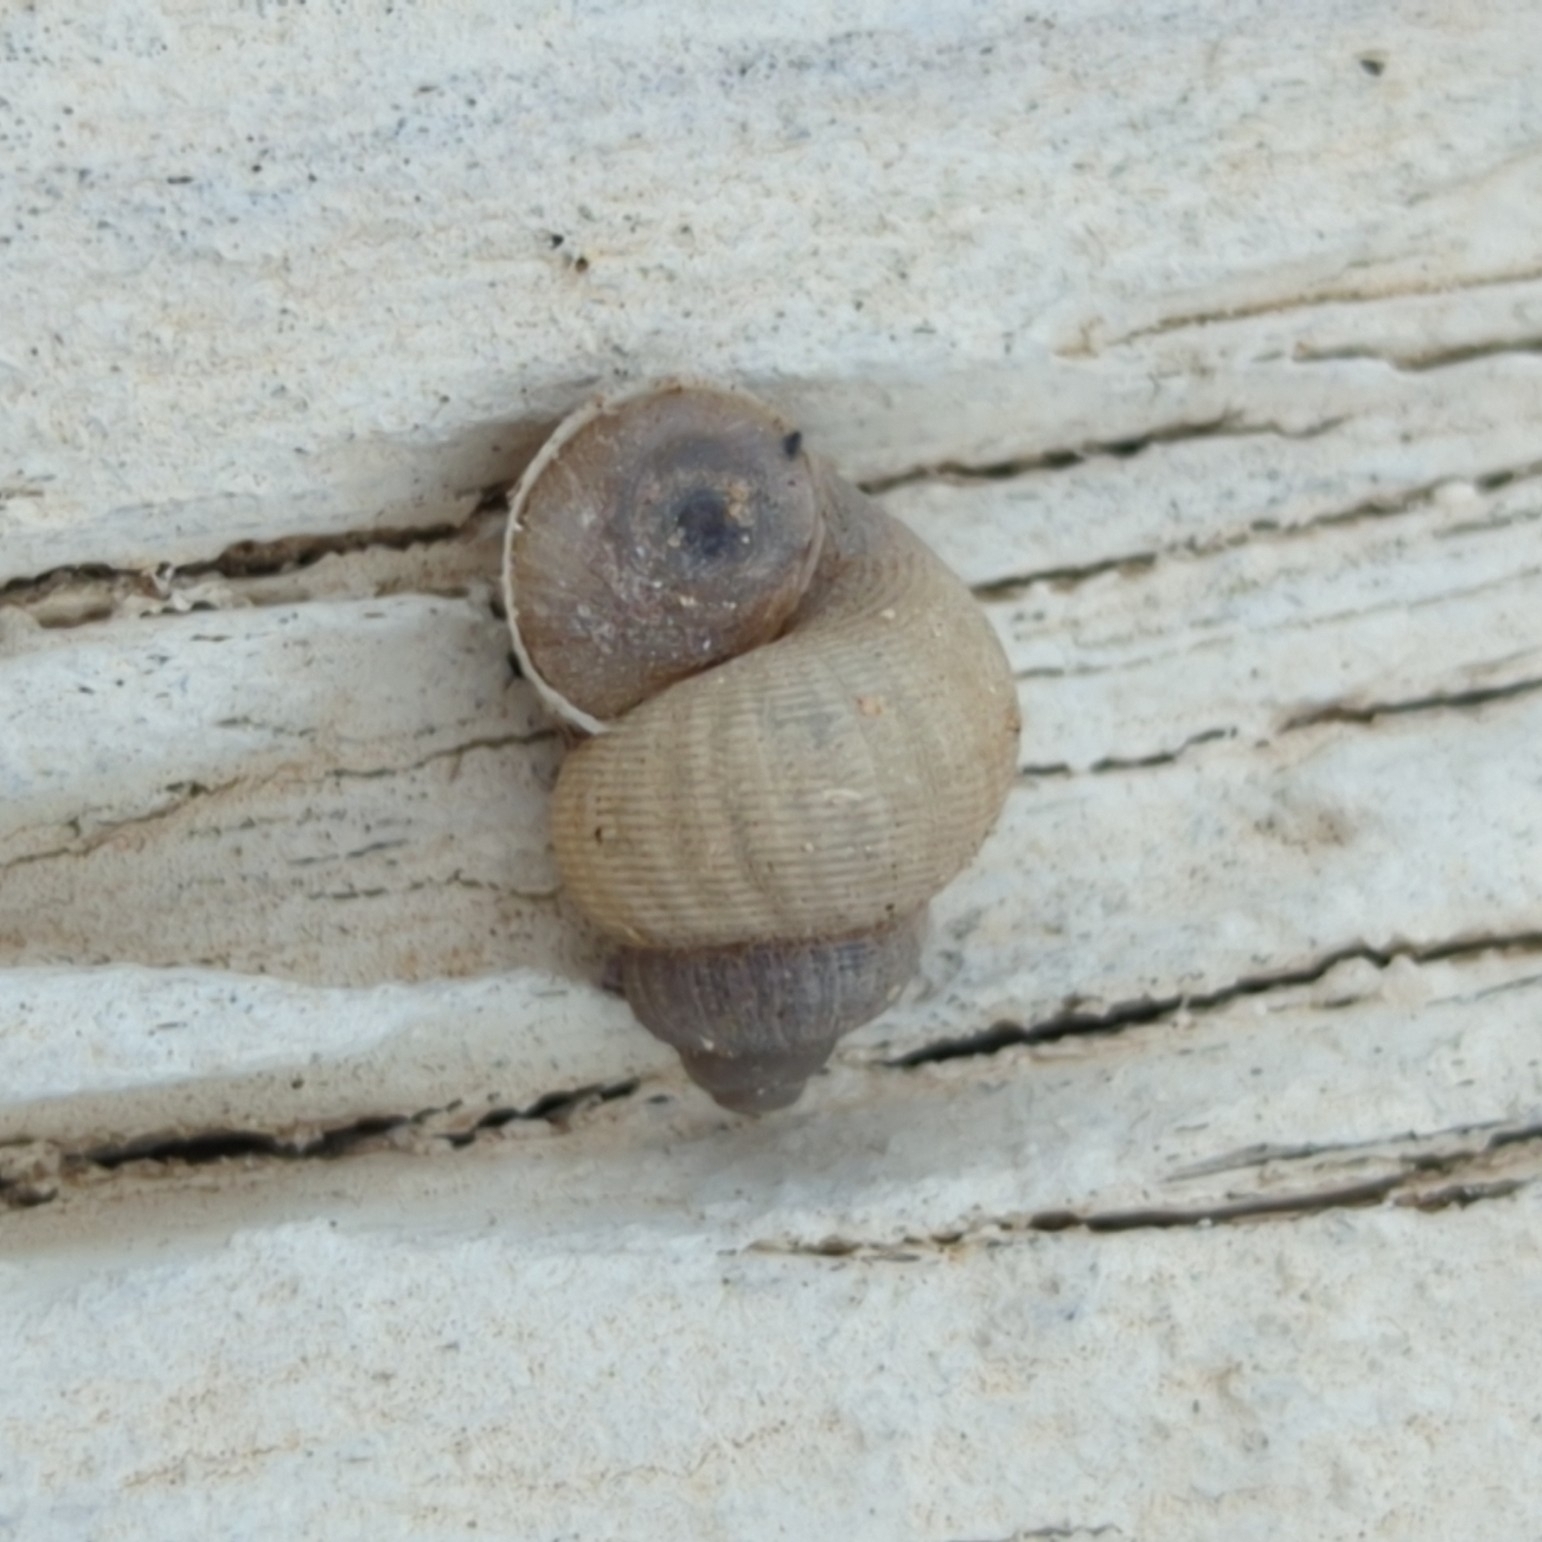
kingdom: Animalia
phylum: Mollusca
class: Gastropoda
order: Littorinimorpha
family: Pomatiidae
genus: Pomatias
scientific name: Pomatias elegans
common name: Red-mouthed snail
